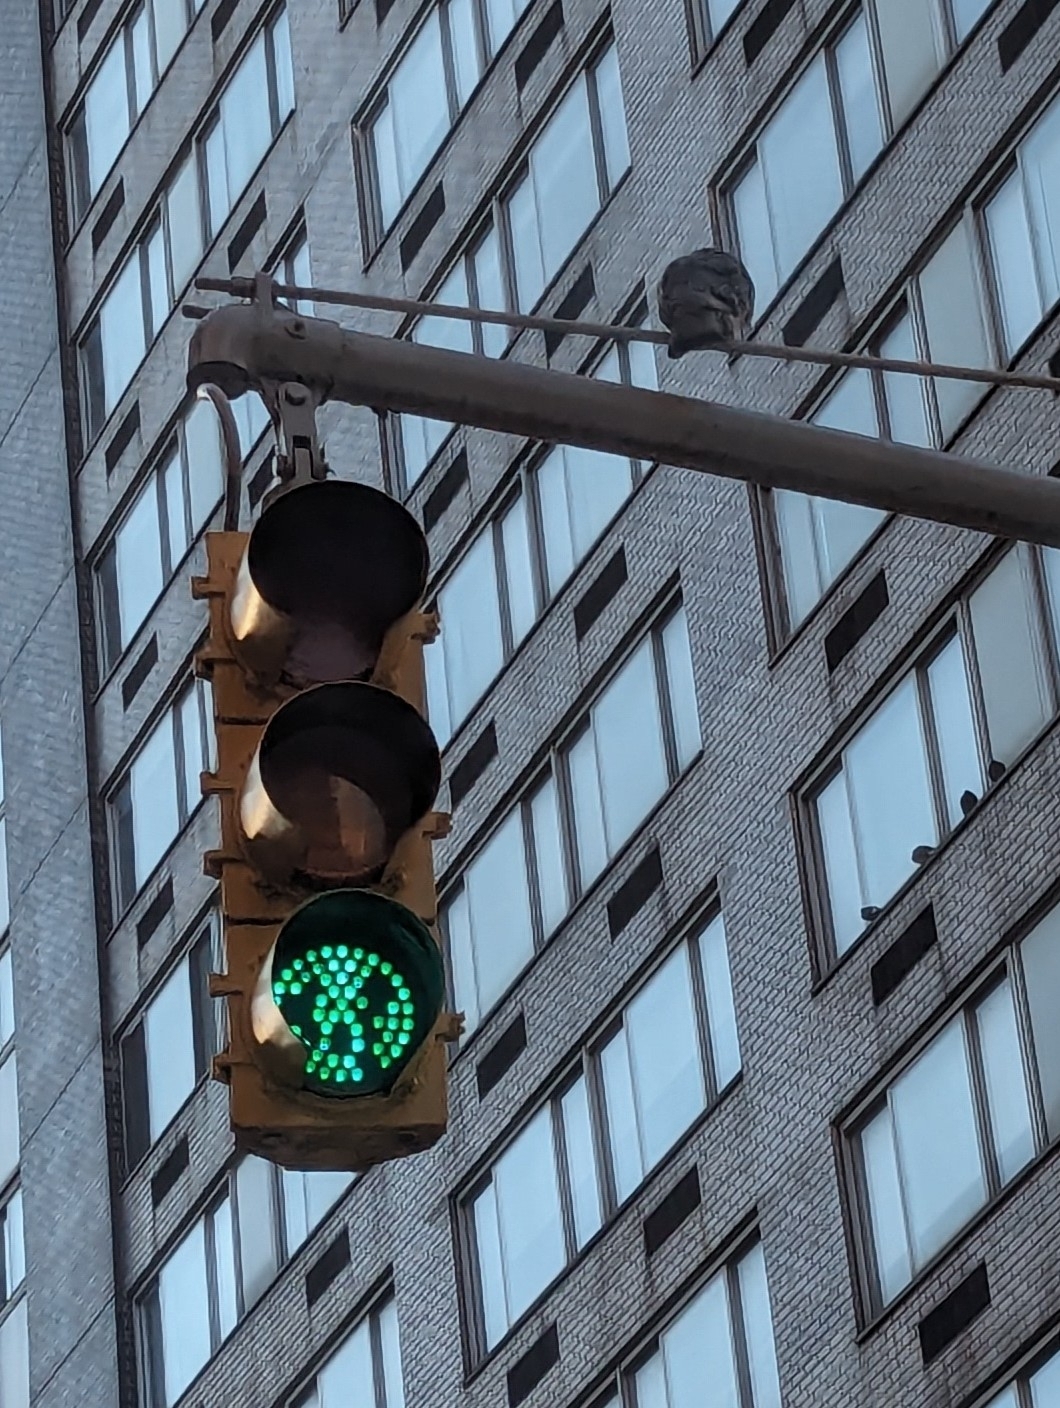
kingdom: Animalia
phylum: Chordata
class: Aves
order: Columbiformes
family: Columbidae
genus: Columba
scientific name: Columba livia
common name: Rock pigeon
